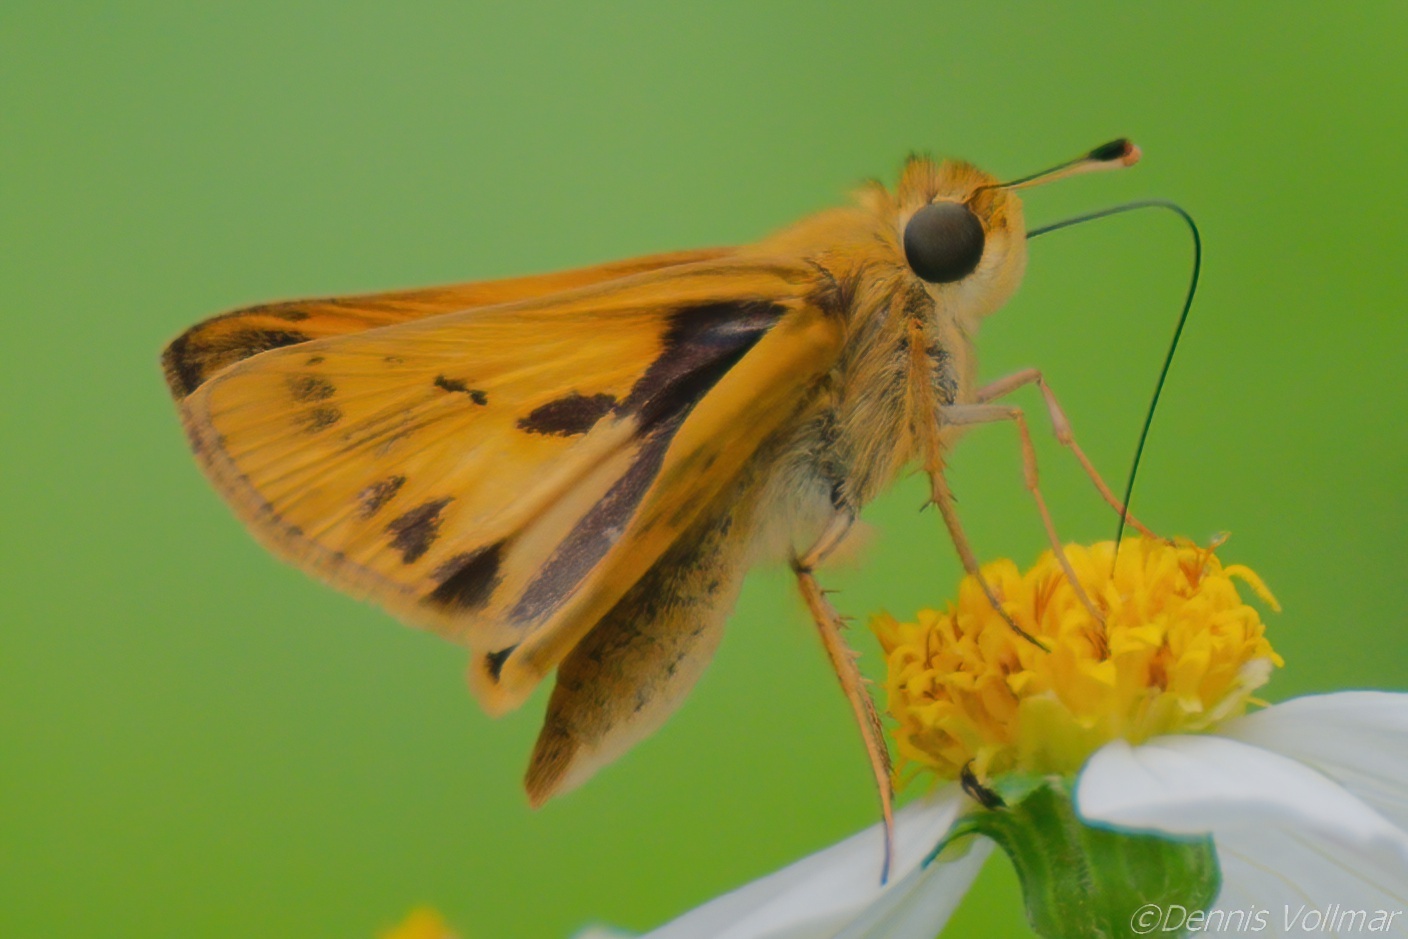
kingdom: Animalia
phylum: Arthropoda
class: Insecta
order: Lepidoptera
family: Hesperiidae
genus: Hylephila
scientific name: Hylephila phyleus
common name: Fiery skipper
